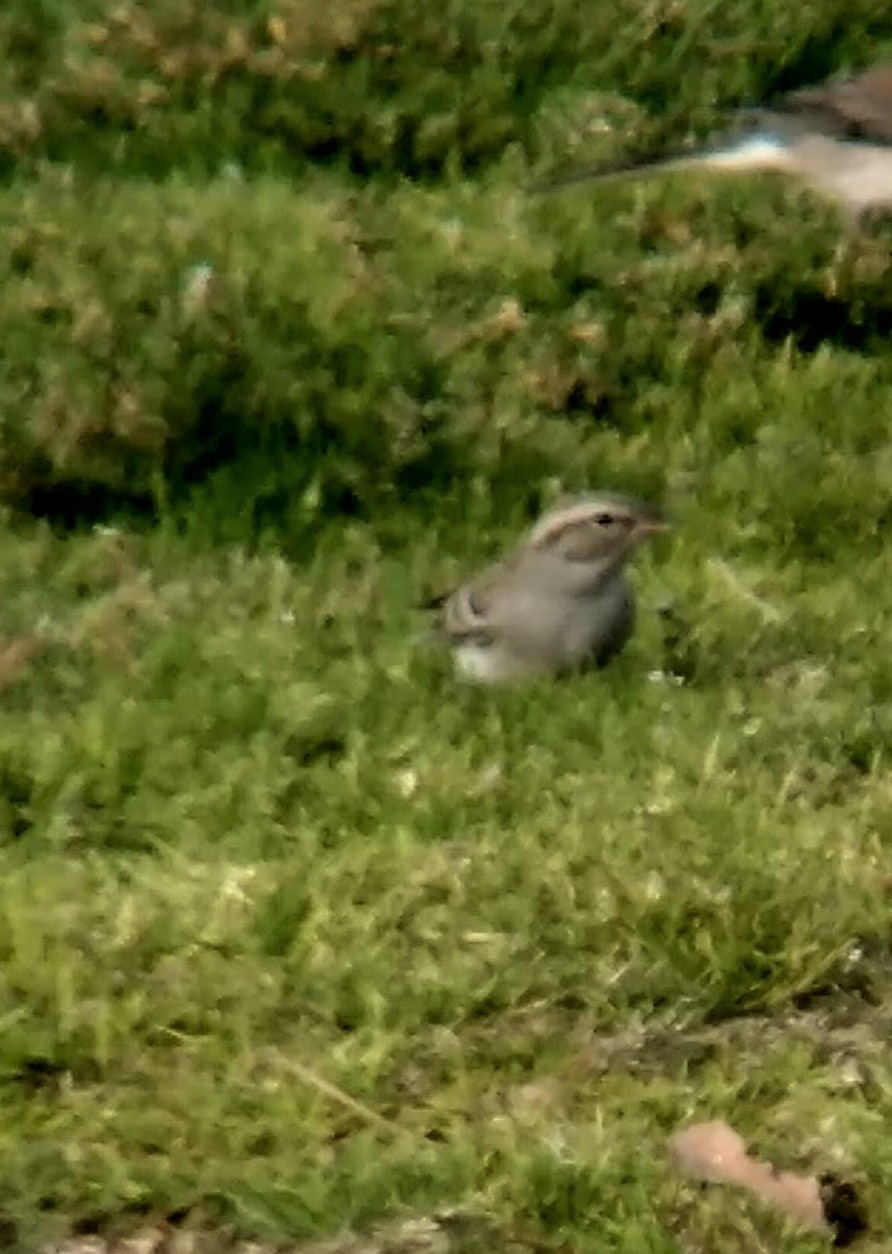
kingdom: Animalia
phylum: Chordata
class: Aves
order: Passeriformes
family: Passerellidae
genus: Spizella
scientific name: Spizella passerina
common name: Chipping sparrow
